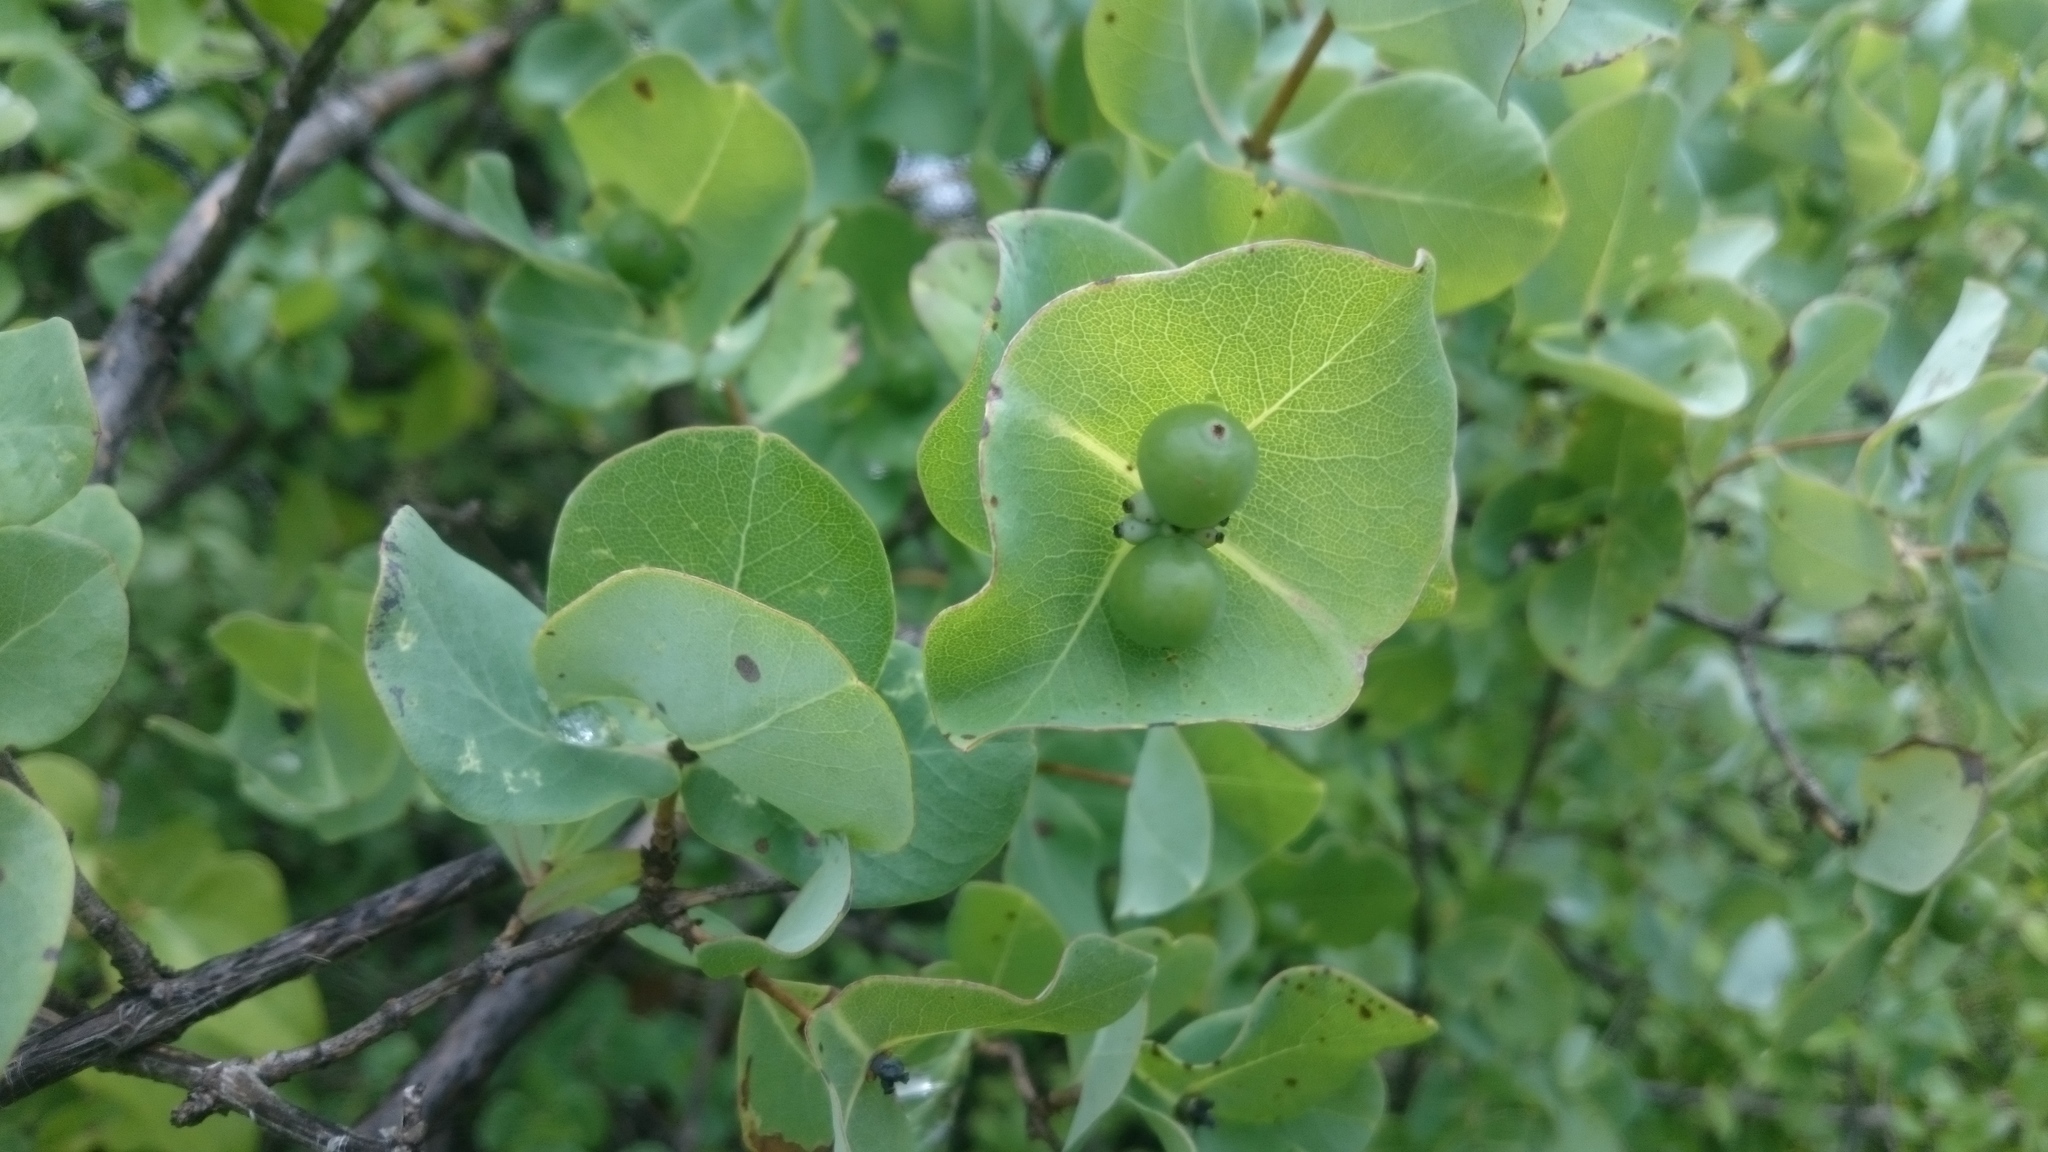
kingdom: Plantae
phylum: Tracheophyta
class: Magnoliopsida
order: Dipsacales
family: Caprifoliaceae
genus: Lonicera
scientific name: Lonicera albiflora
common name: White honeysuckle
